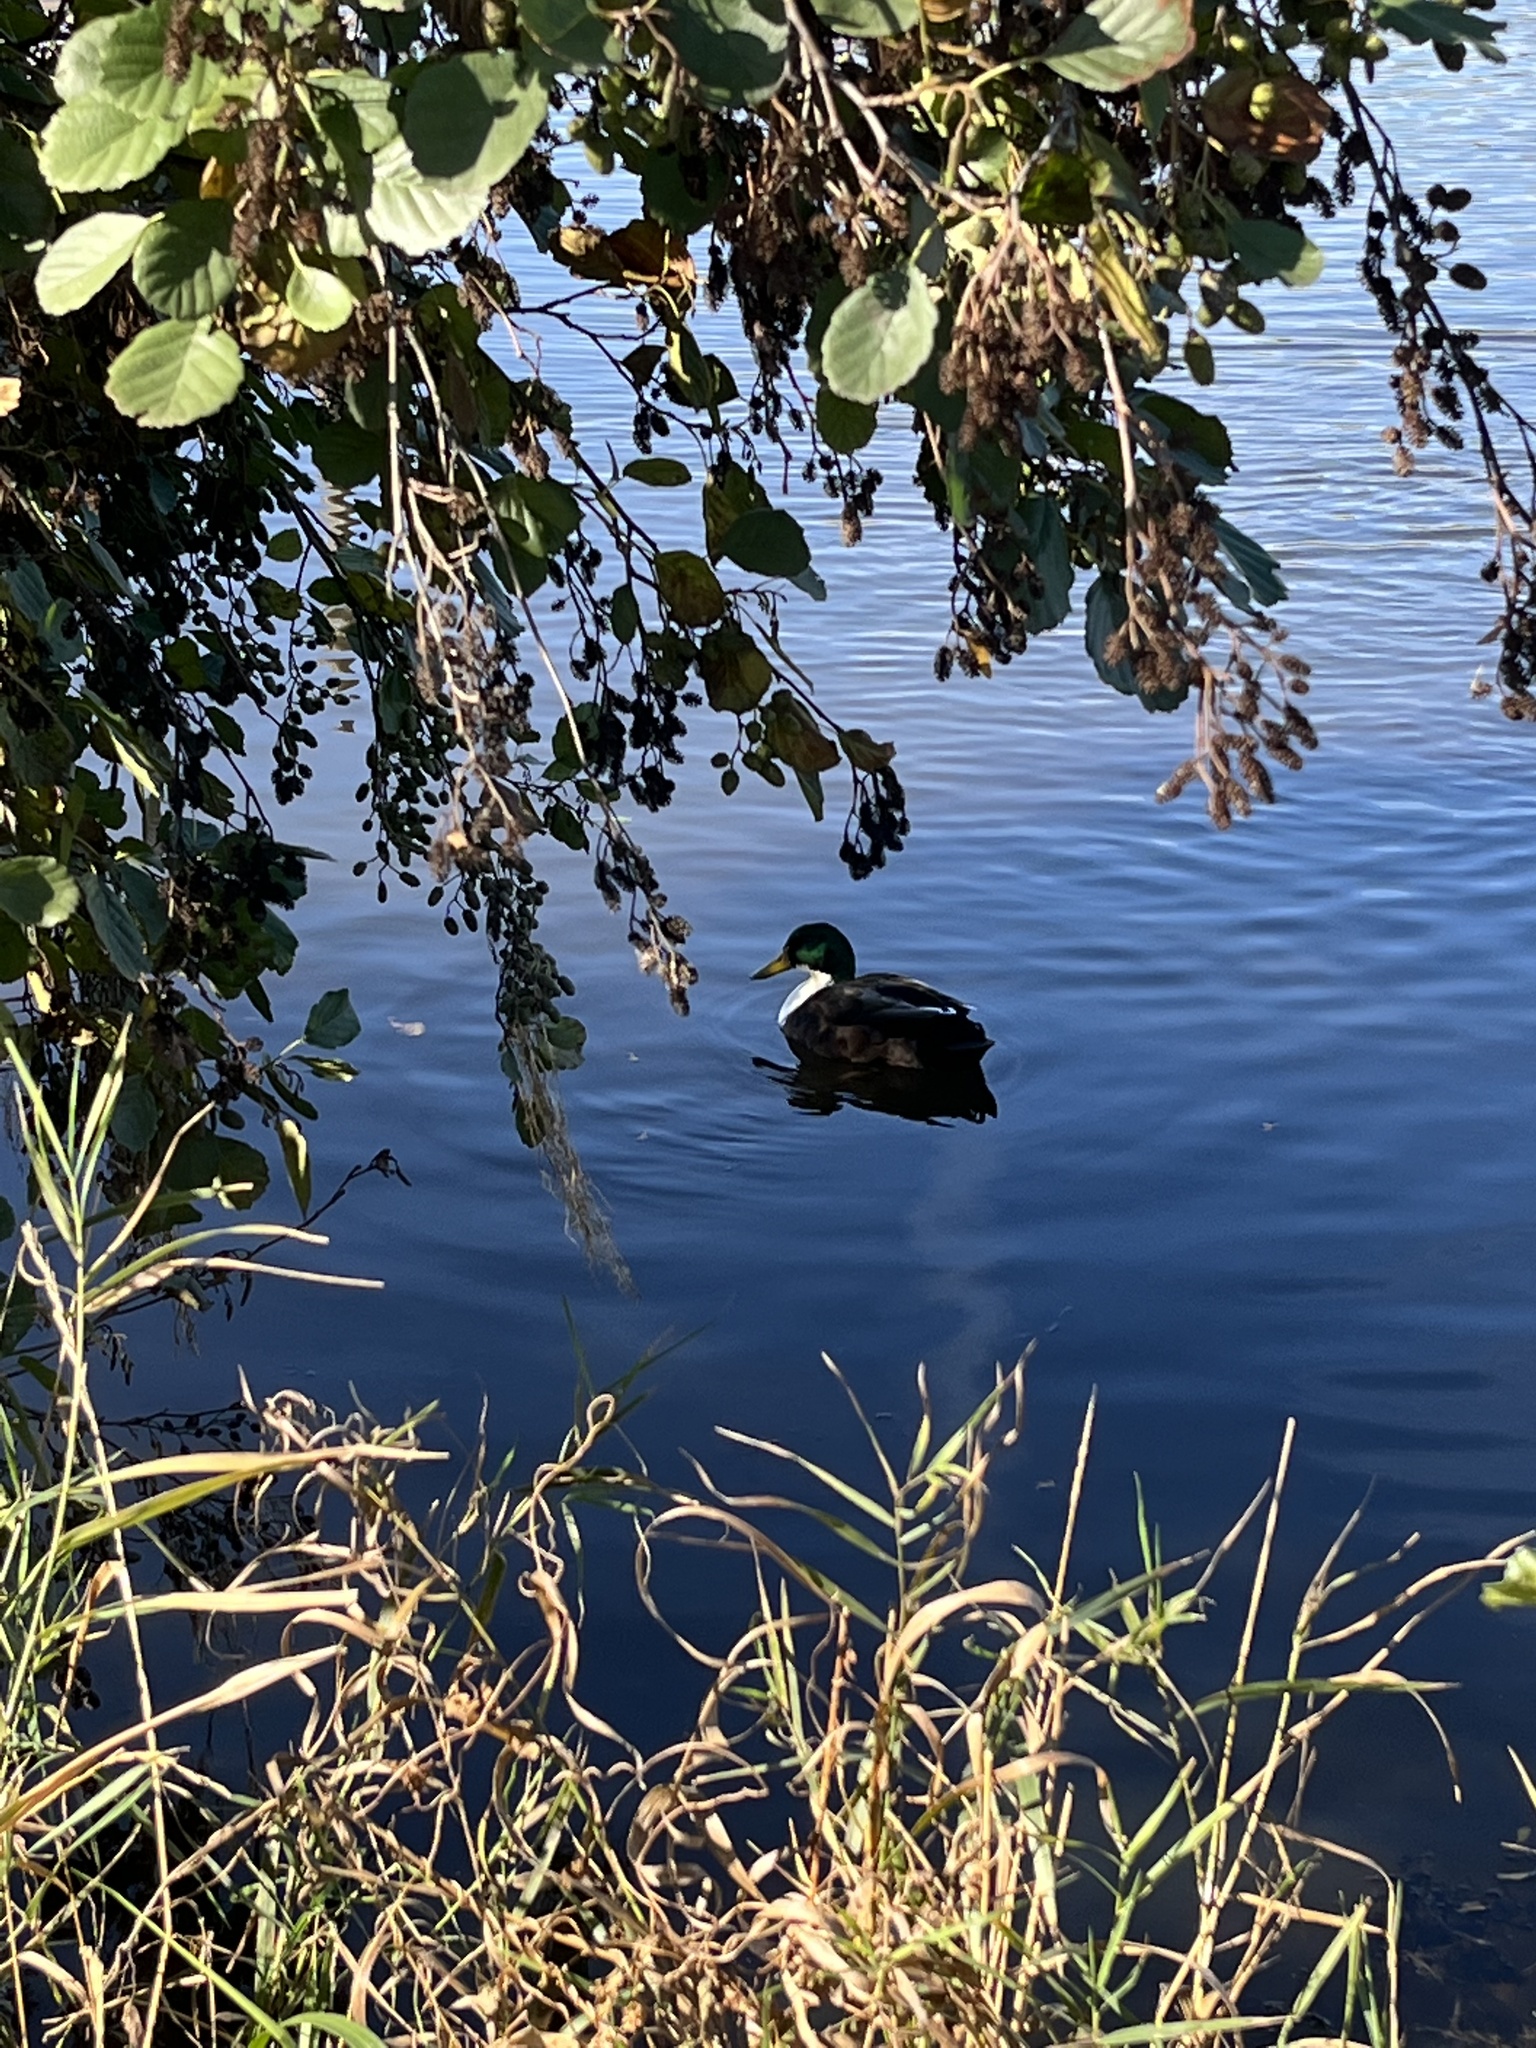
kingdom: Animalia
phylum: Chordata
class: Aves
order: Anseriformes
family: Anatidae
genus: Anas
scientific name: Anas platyrhynchos
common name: Mallard
